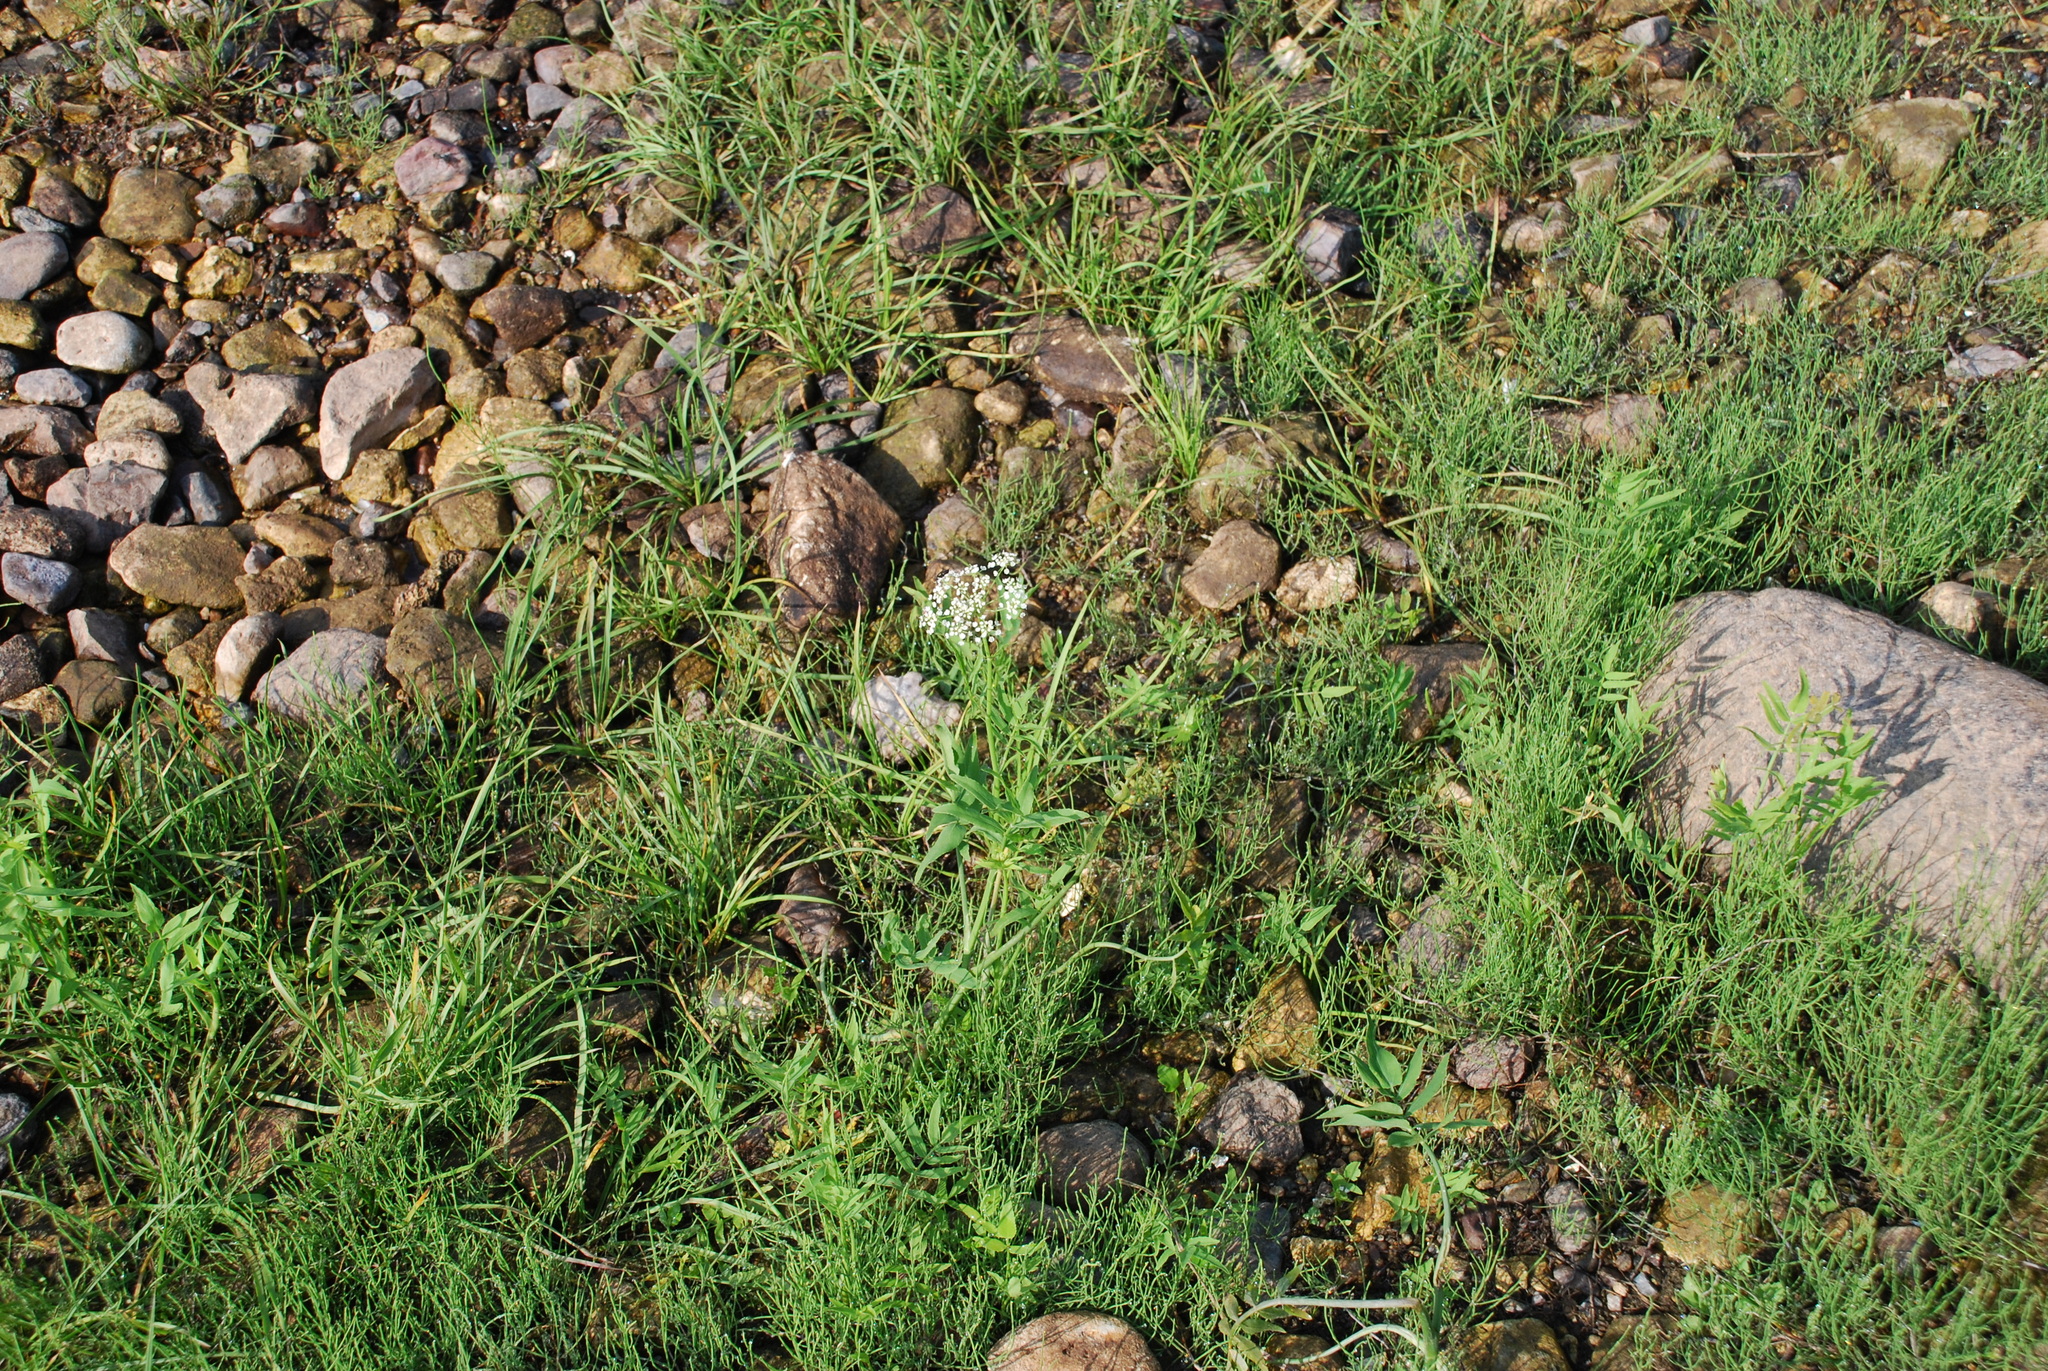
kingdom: Plantae
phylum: Tracheophyta
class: Magnoliopsida
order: Apiales
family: Apiaceae
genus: Sium
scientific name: Sium latifolium
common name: Greater water-parsnip
